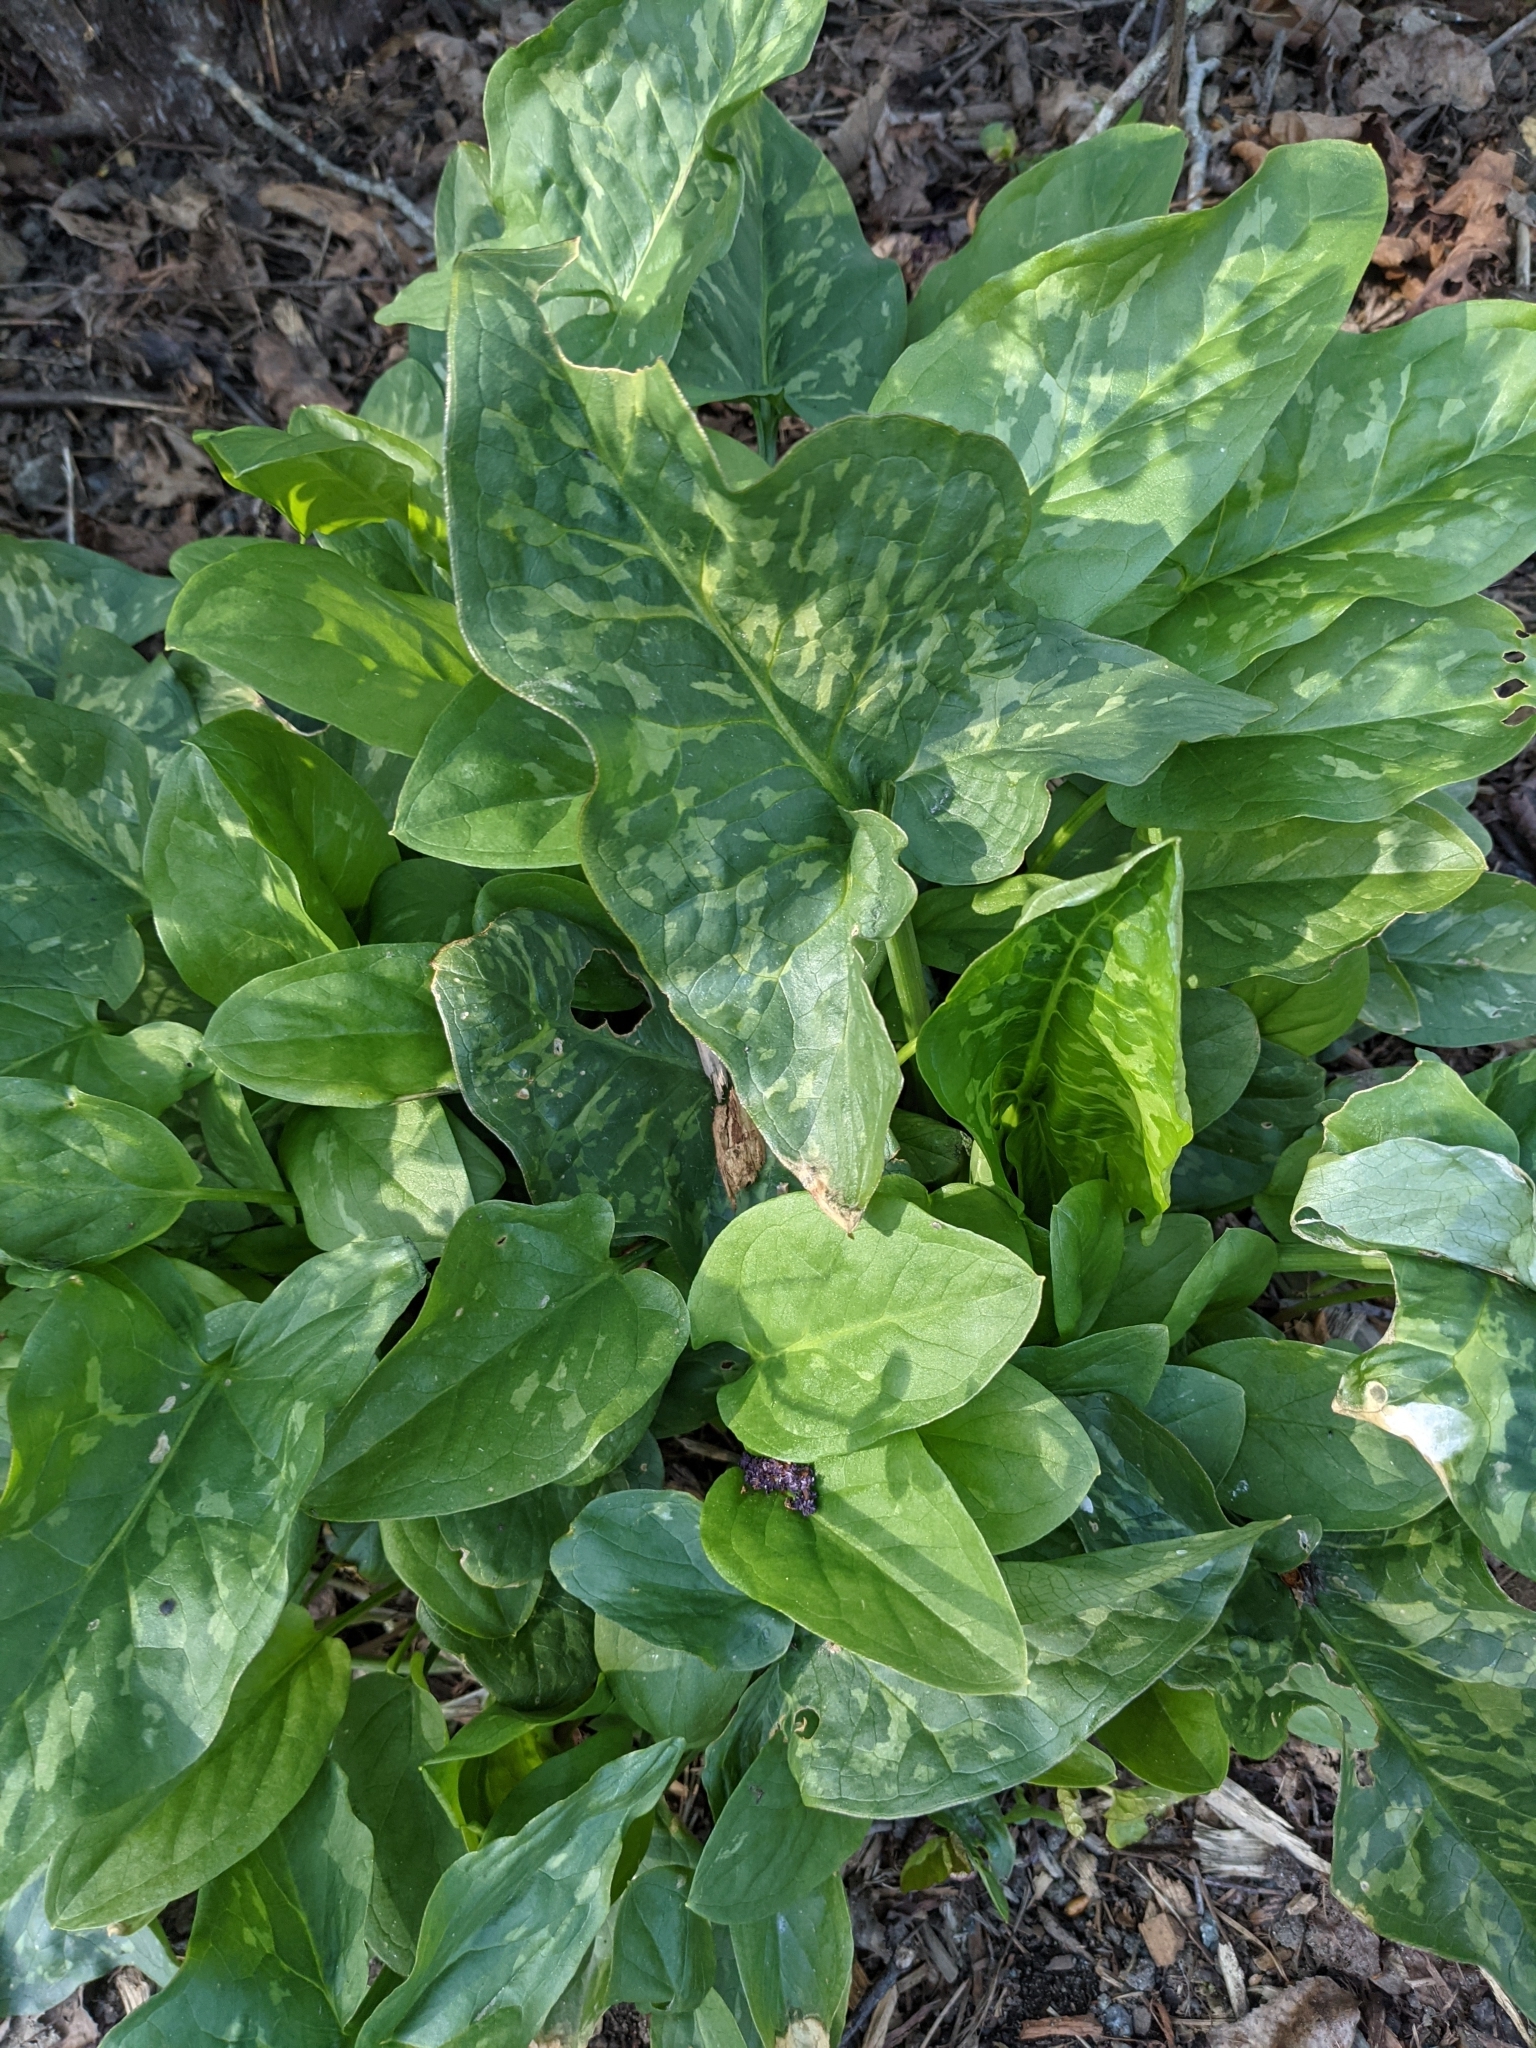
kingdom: Plantae
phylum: Tracheophyta
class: Liliopsida
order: Alismatales
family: Araceae
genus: Arum
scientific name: Arum italicum
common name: Italian lords-and-ladies
